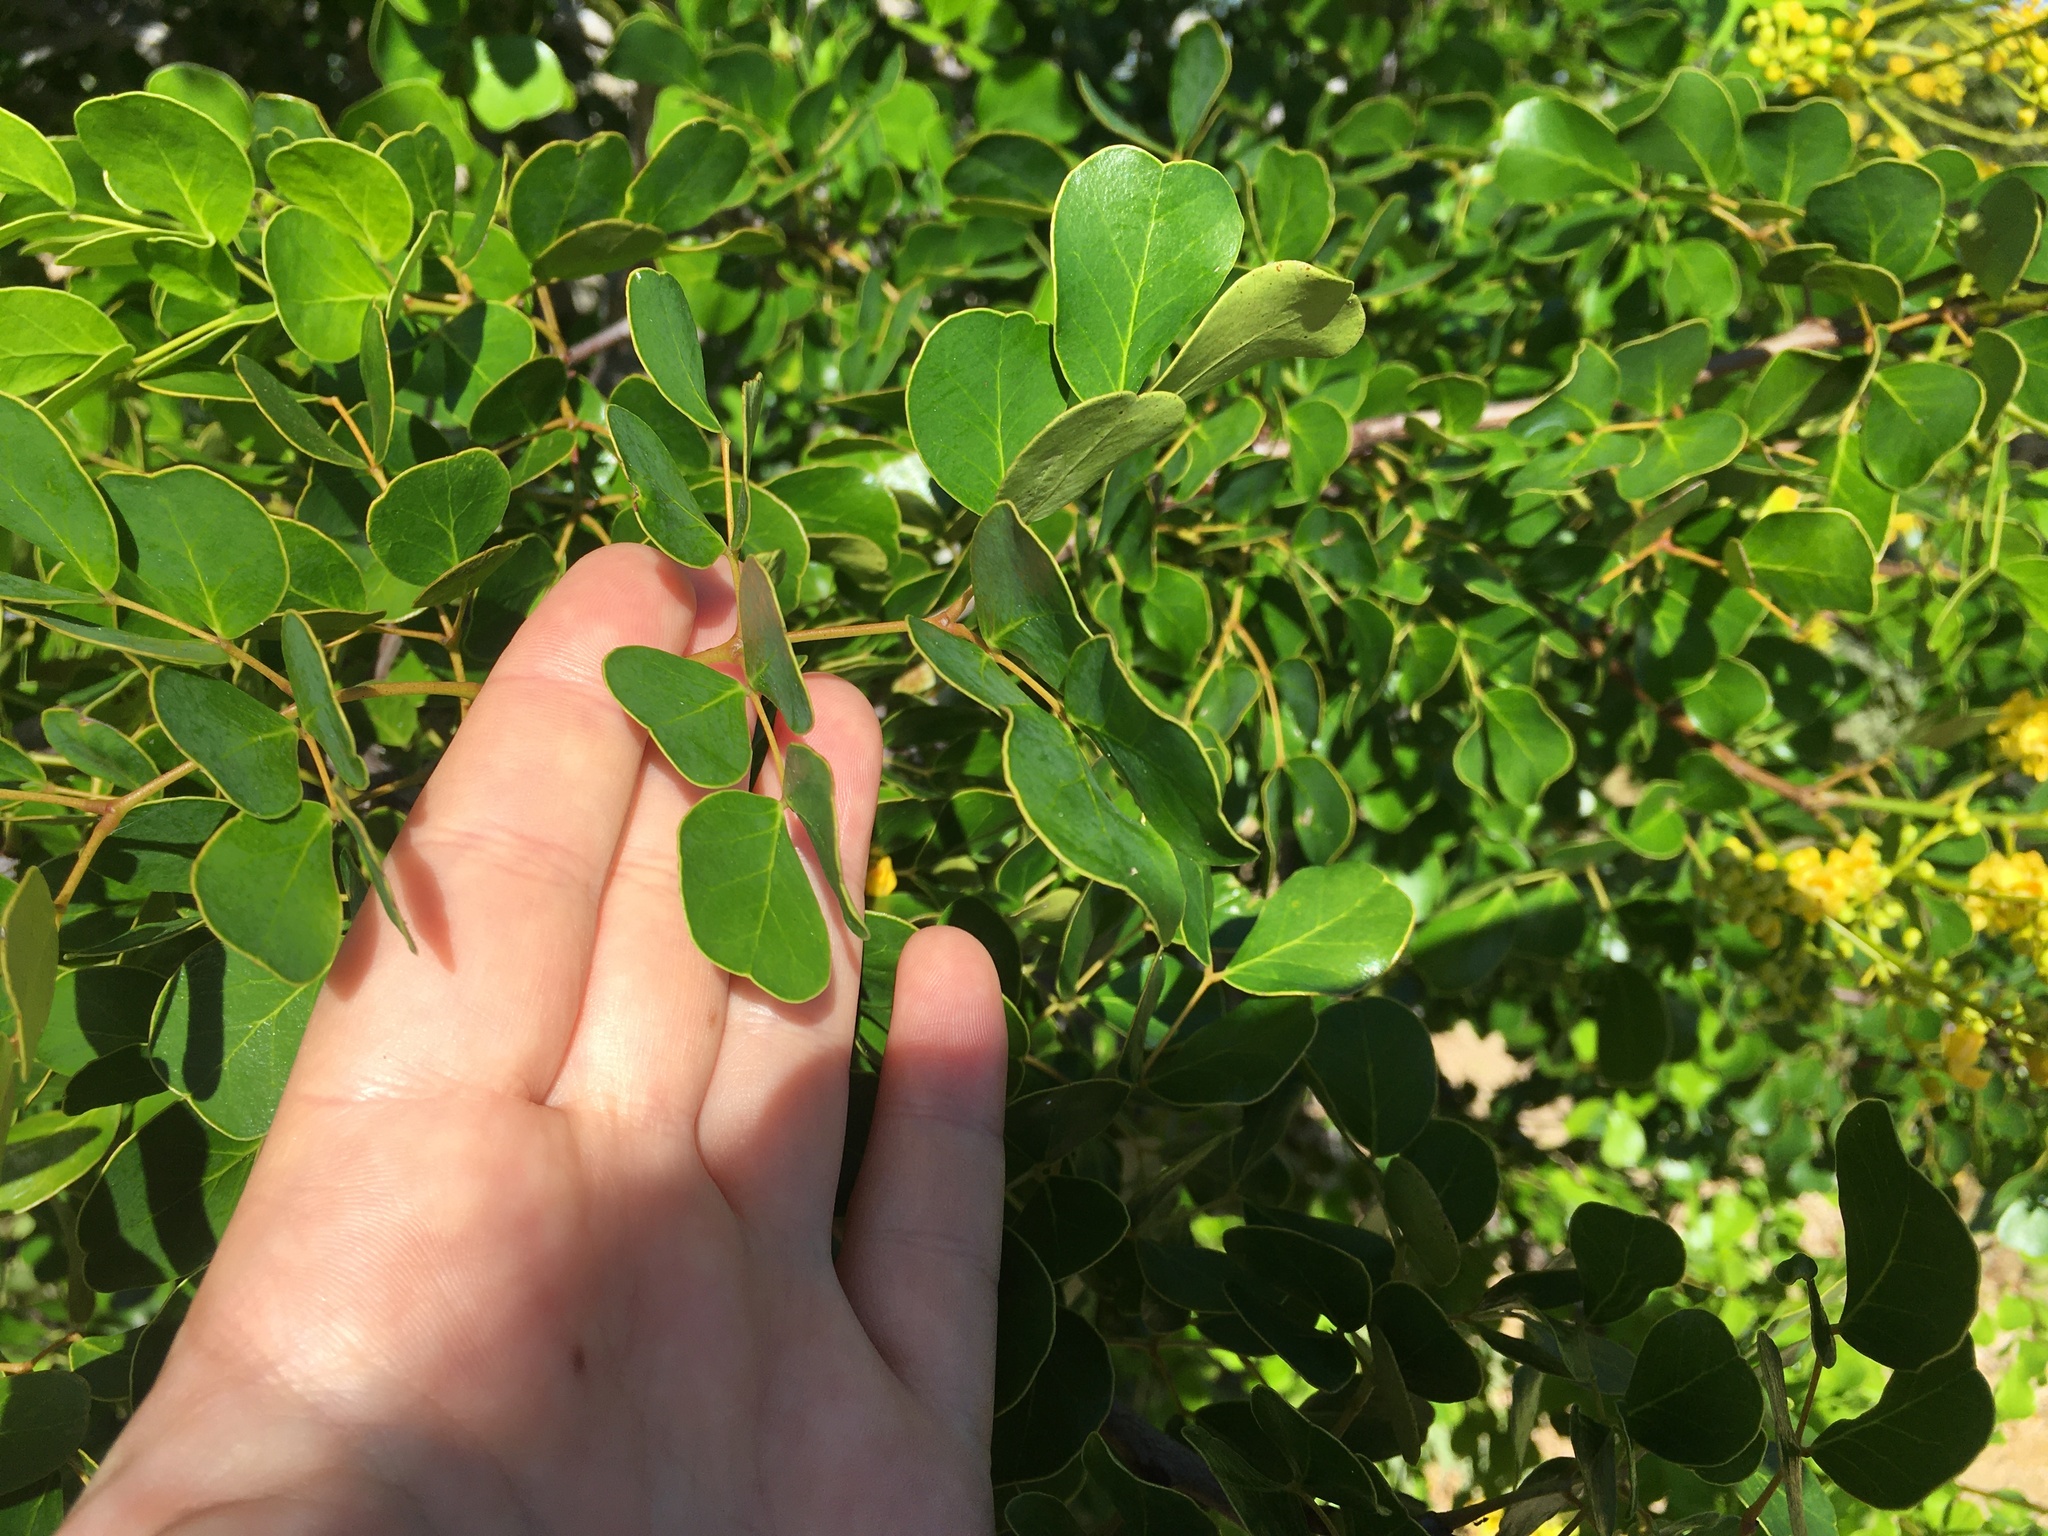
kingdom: Plantae
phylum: Tracheophyta
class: Magnoliopsida
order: Fabales
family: Fabaceae
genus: Tara
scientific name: Tara vesicaria
